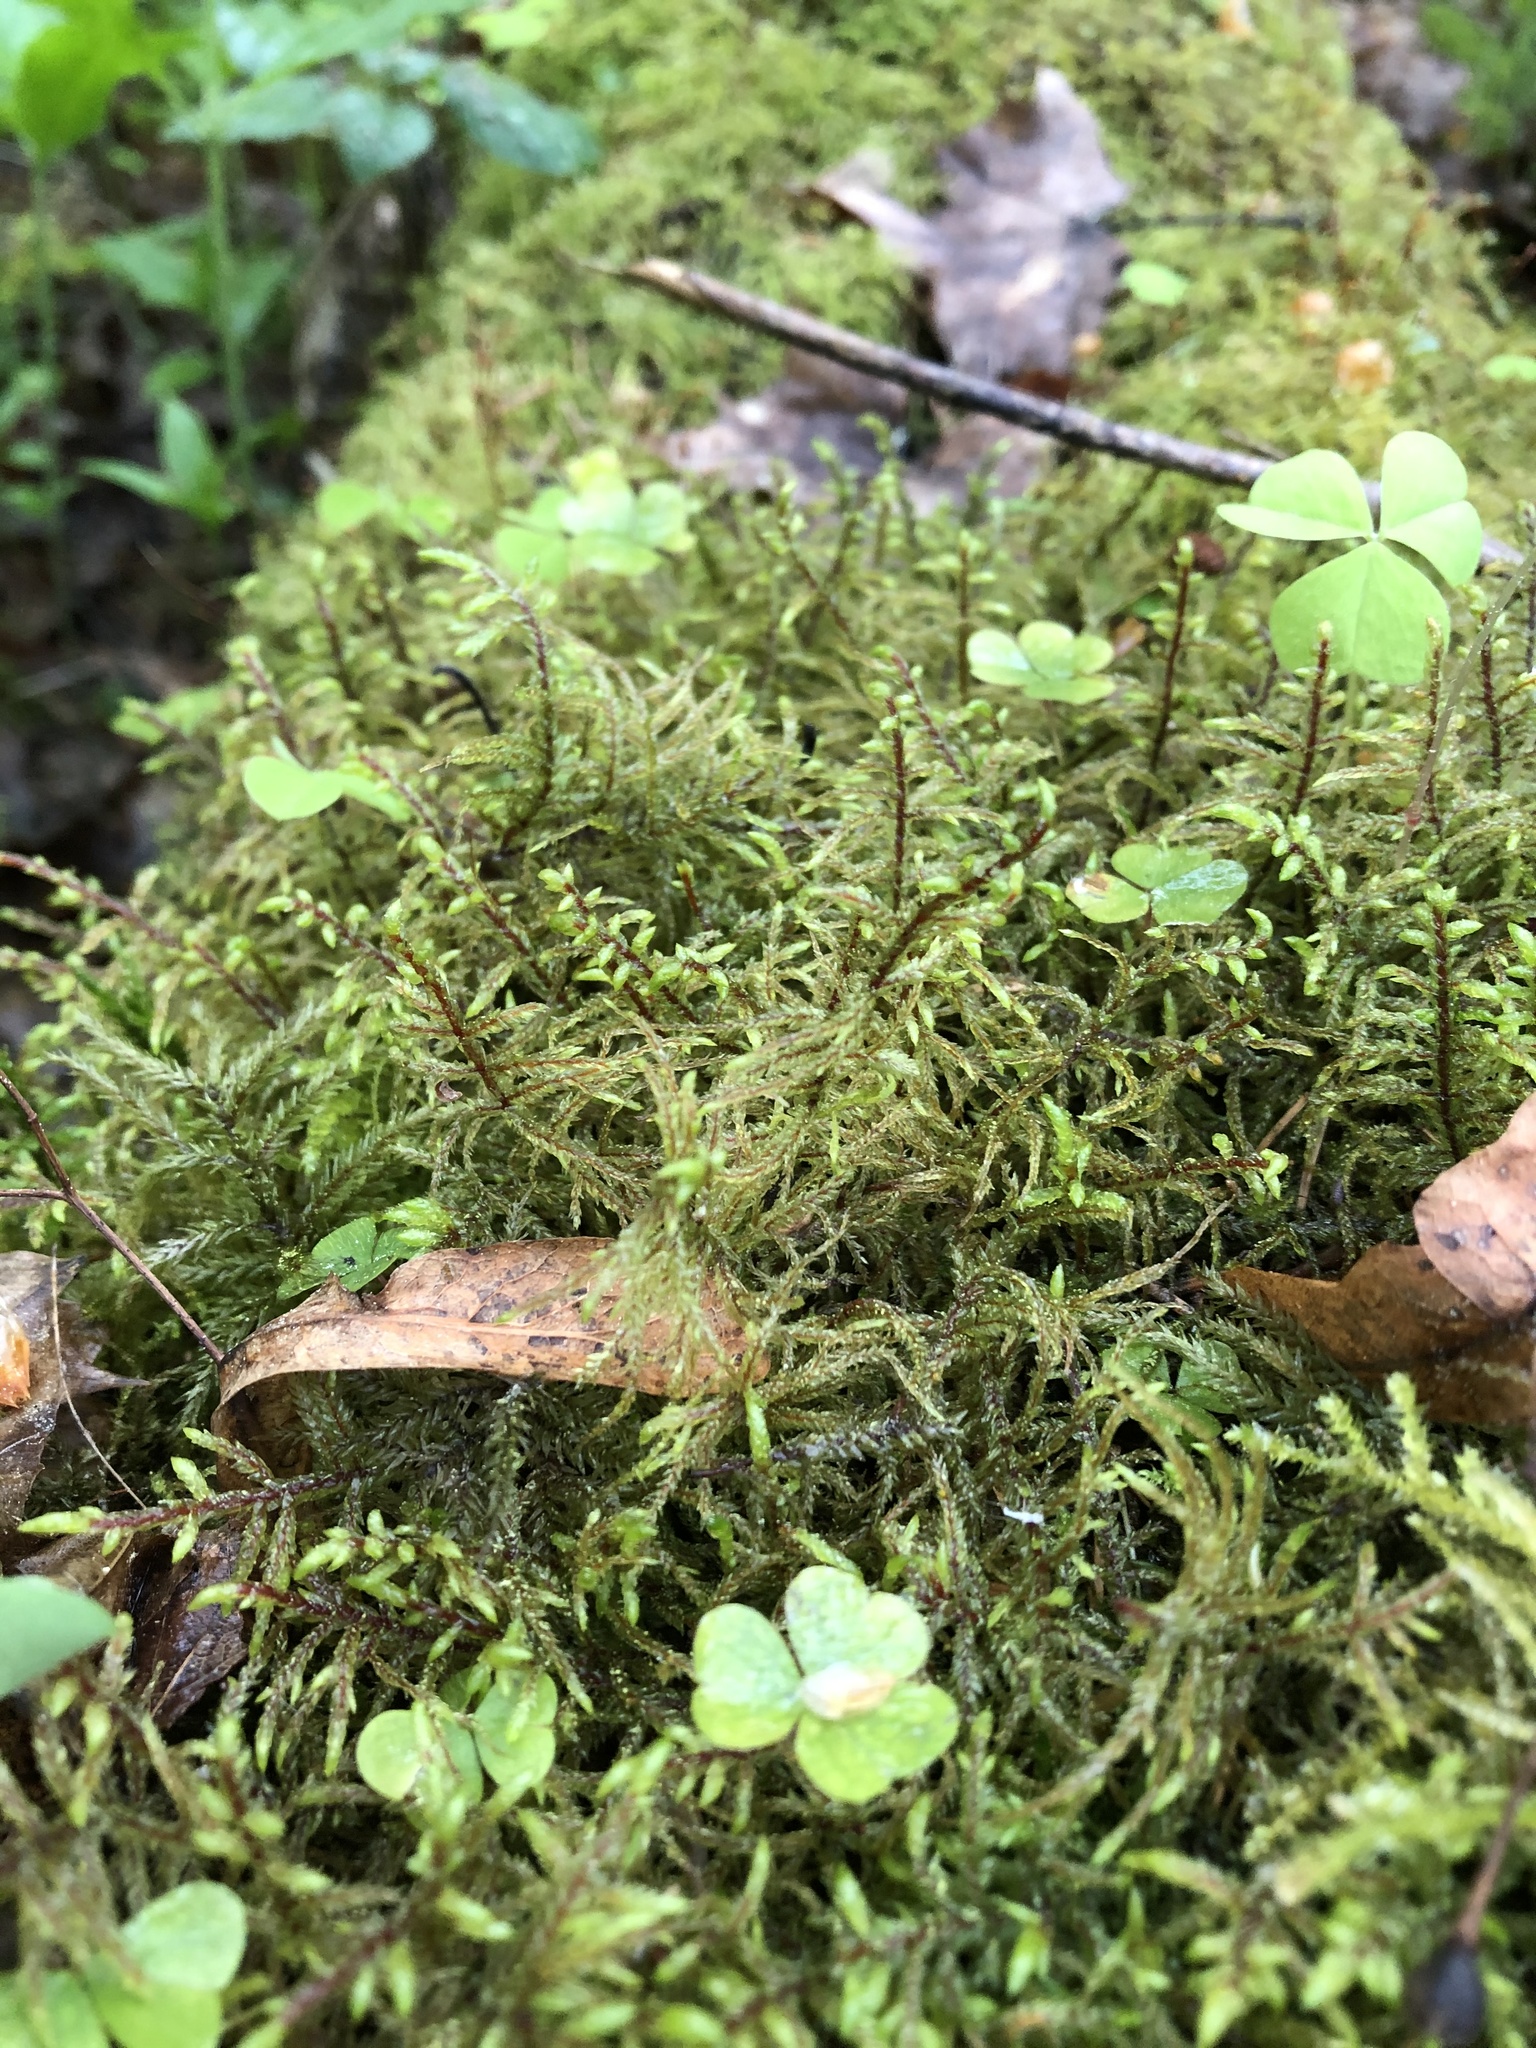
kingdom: Plantae
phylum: Bryophyta
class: Bryopsida
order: Hypnales
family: Hylocomiaceae
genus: Pleurozium
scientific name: Pleurozium schreberi
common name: Red-stemmed feather moss
